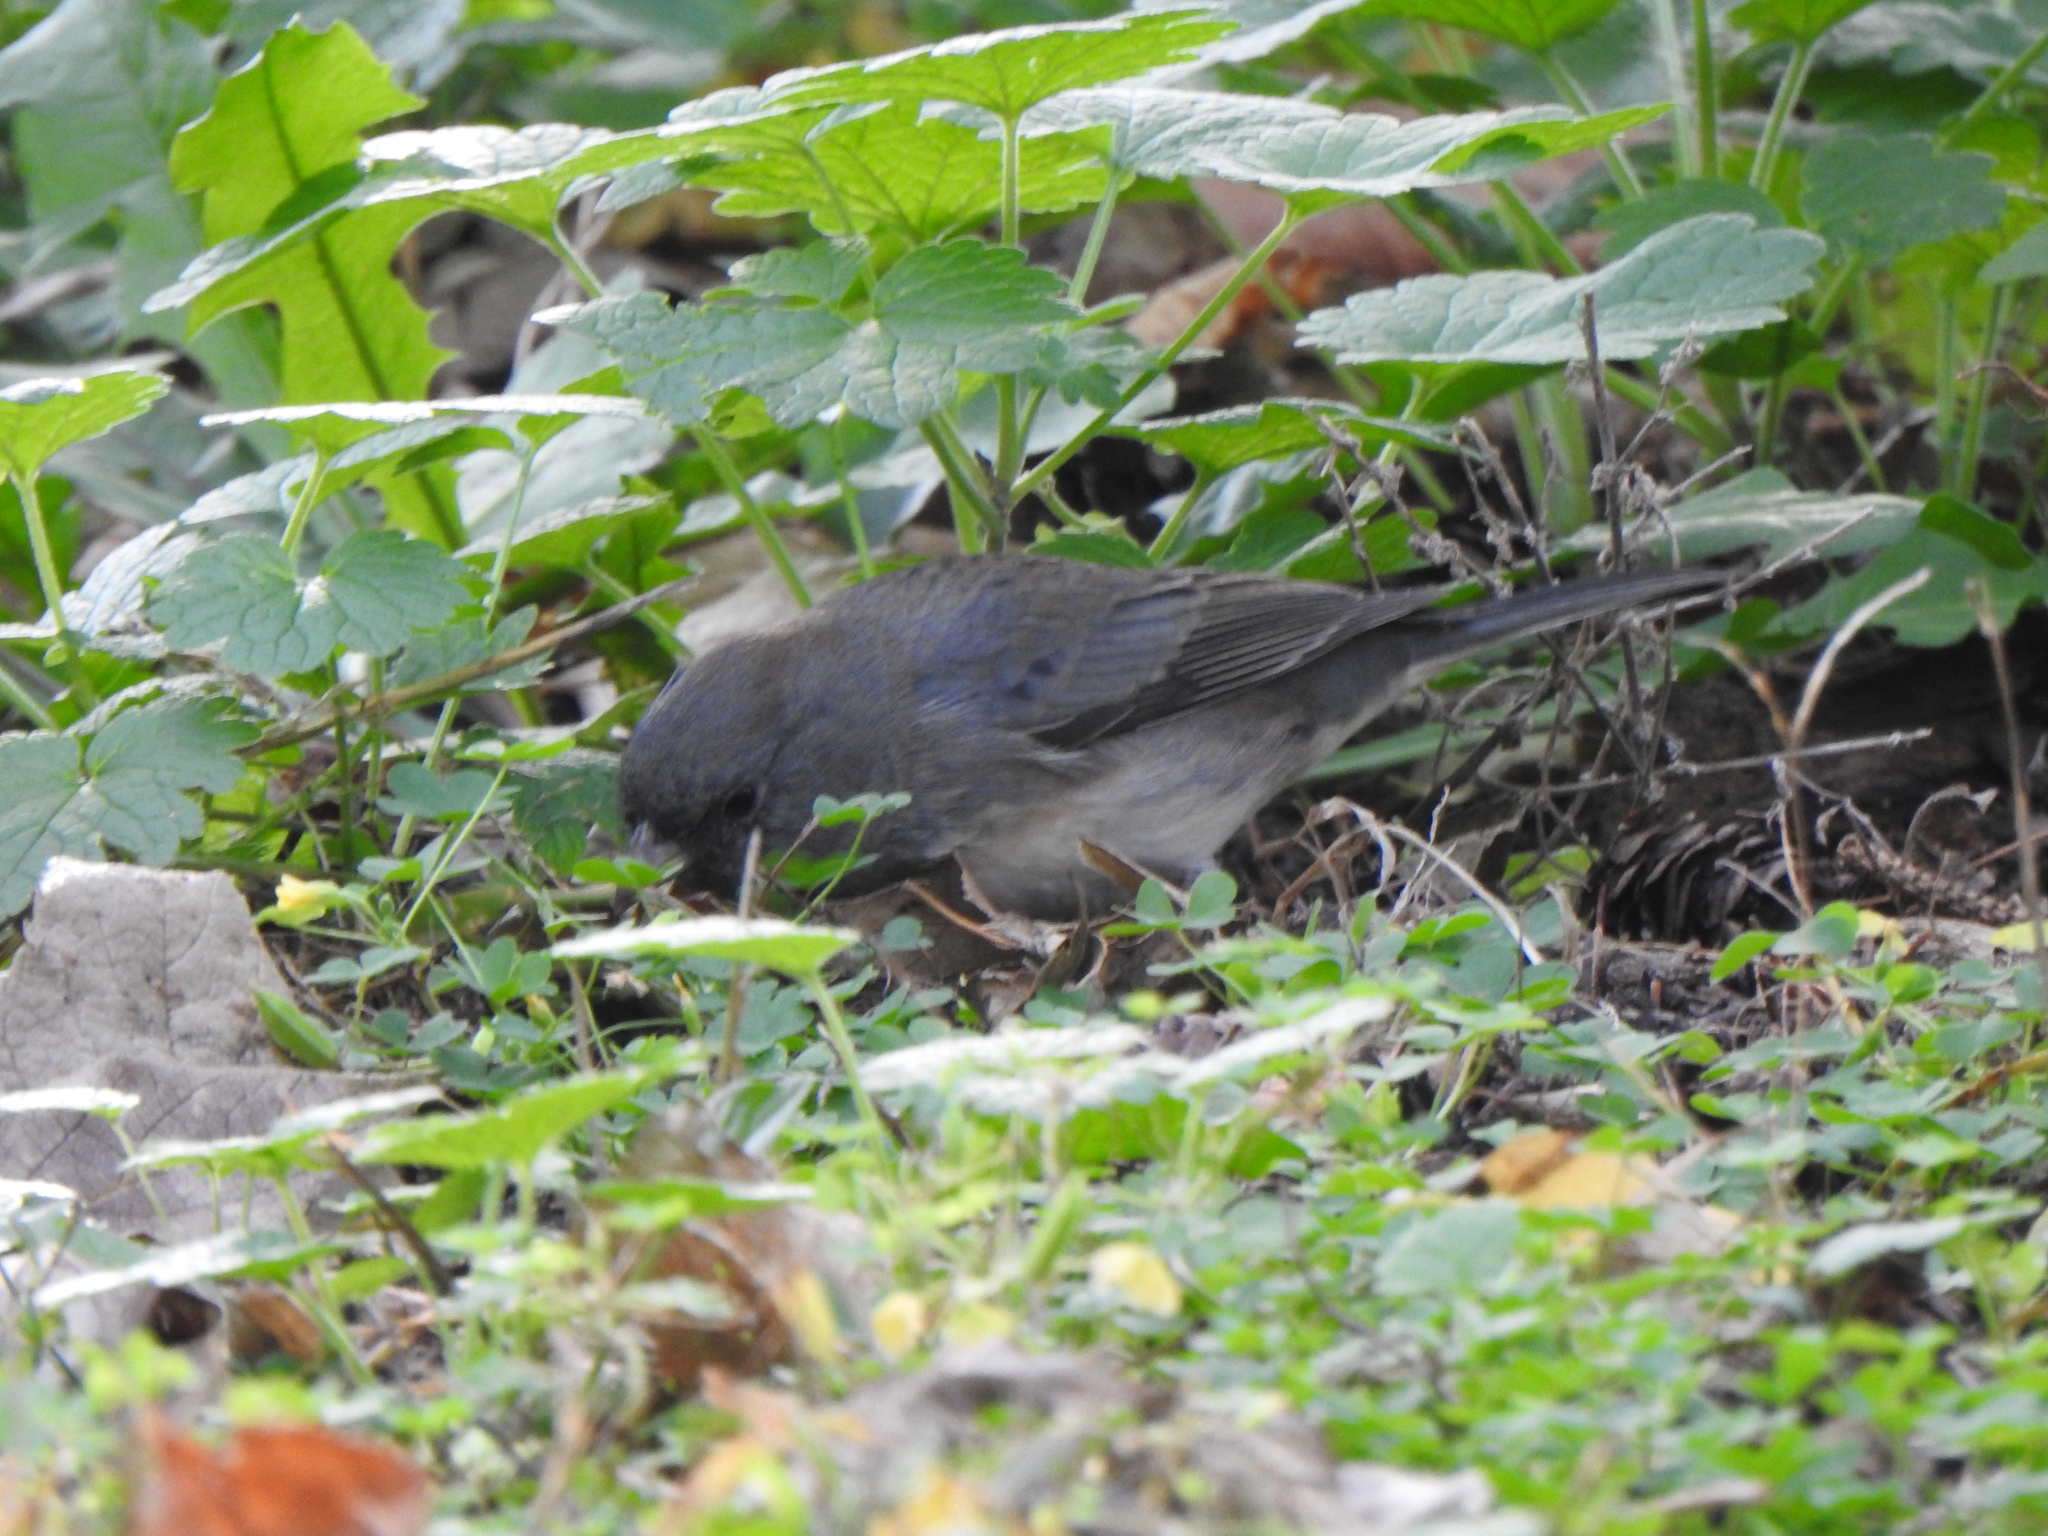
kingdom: Animalia
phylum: Chordata
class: Aves
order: Passeriformes
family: Passerellidae
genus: Junco
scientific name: Junco hyemalis
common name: Dark-eyed junco
